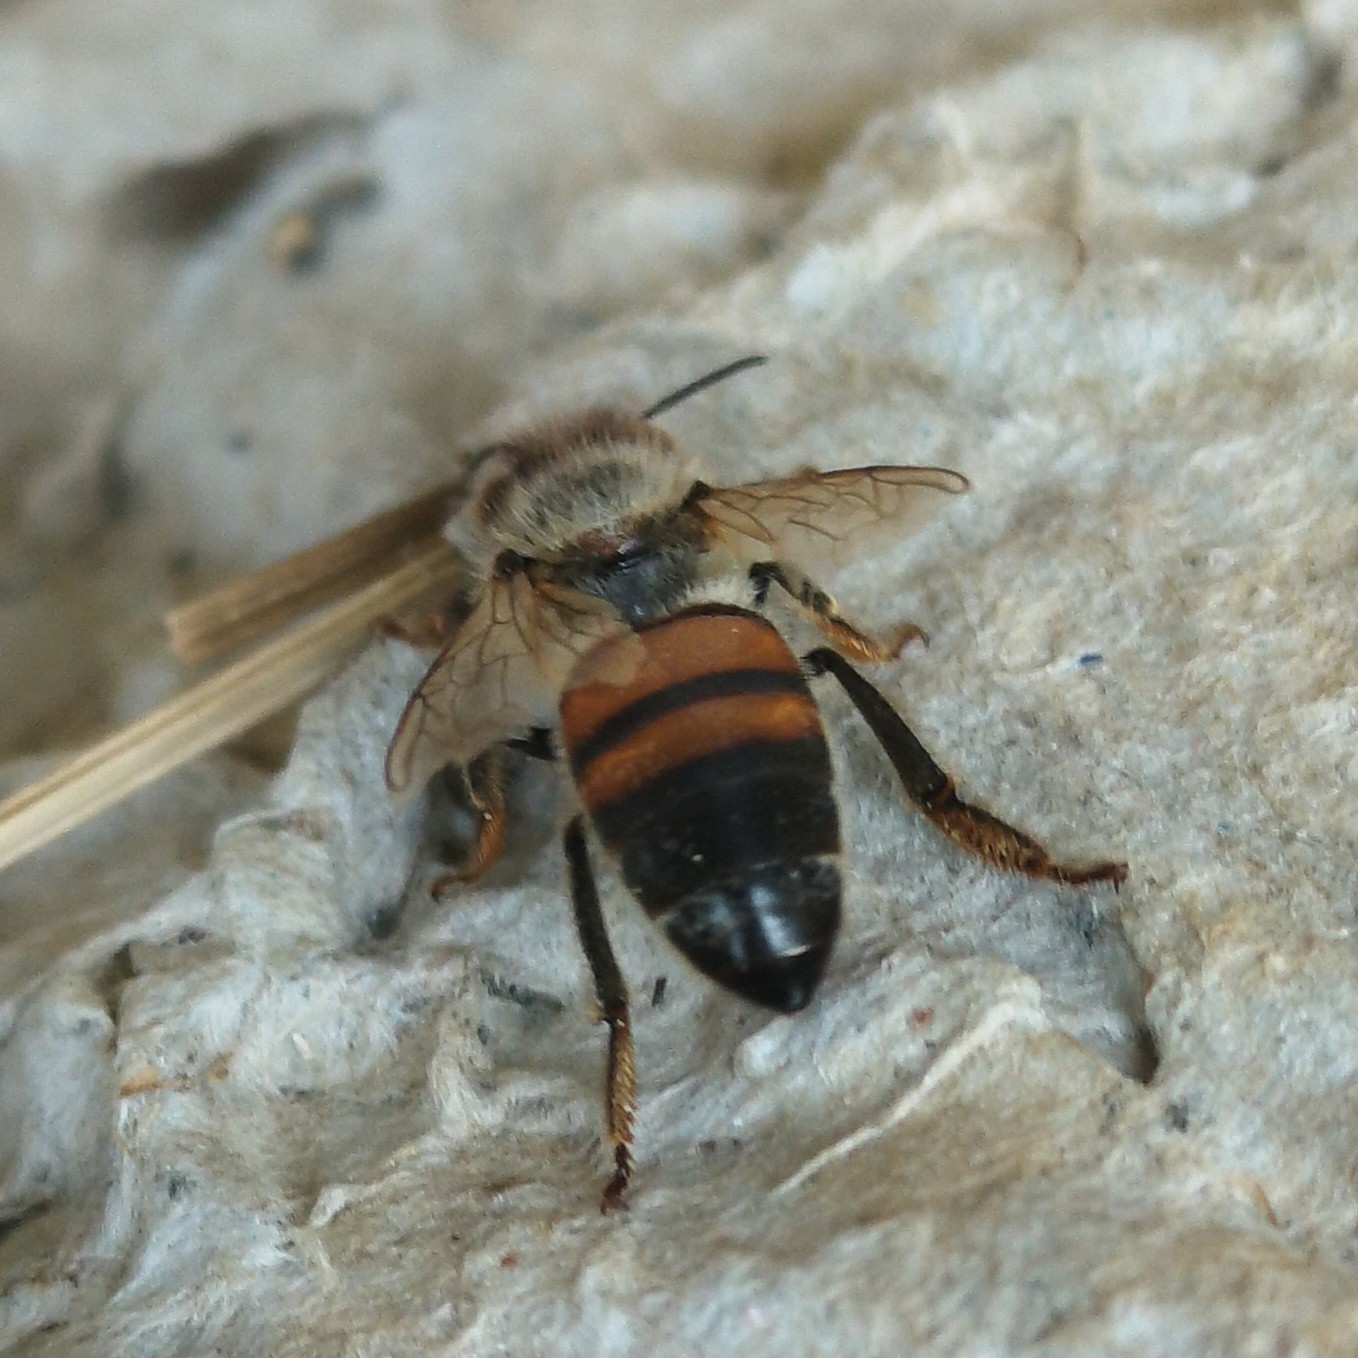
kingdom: Animalia
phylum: Arthropoda
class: Insecta
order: Hymenoptera
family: Apidae
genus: Apis
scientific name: Apis mellifera
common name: Honey bee
